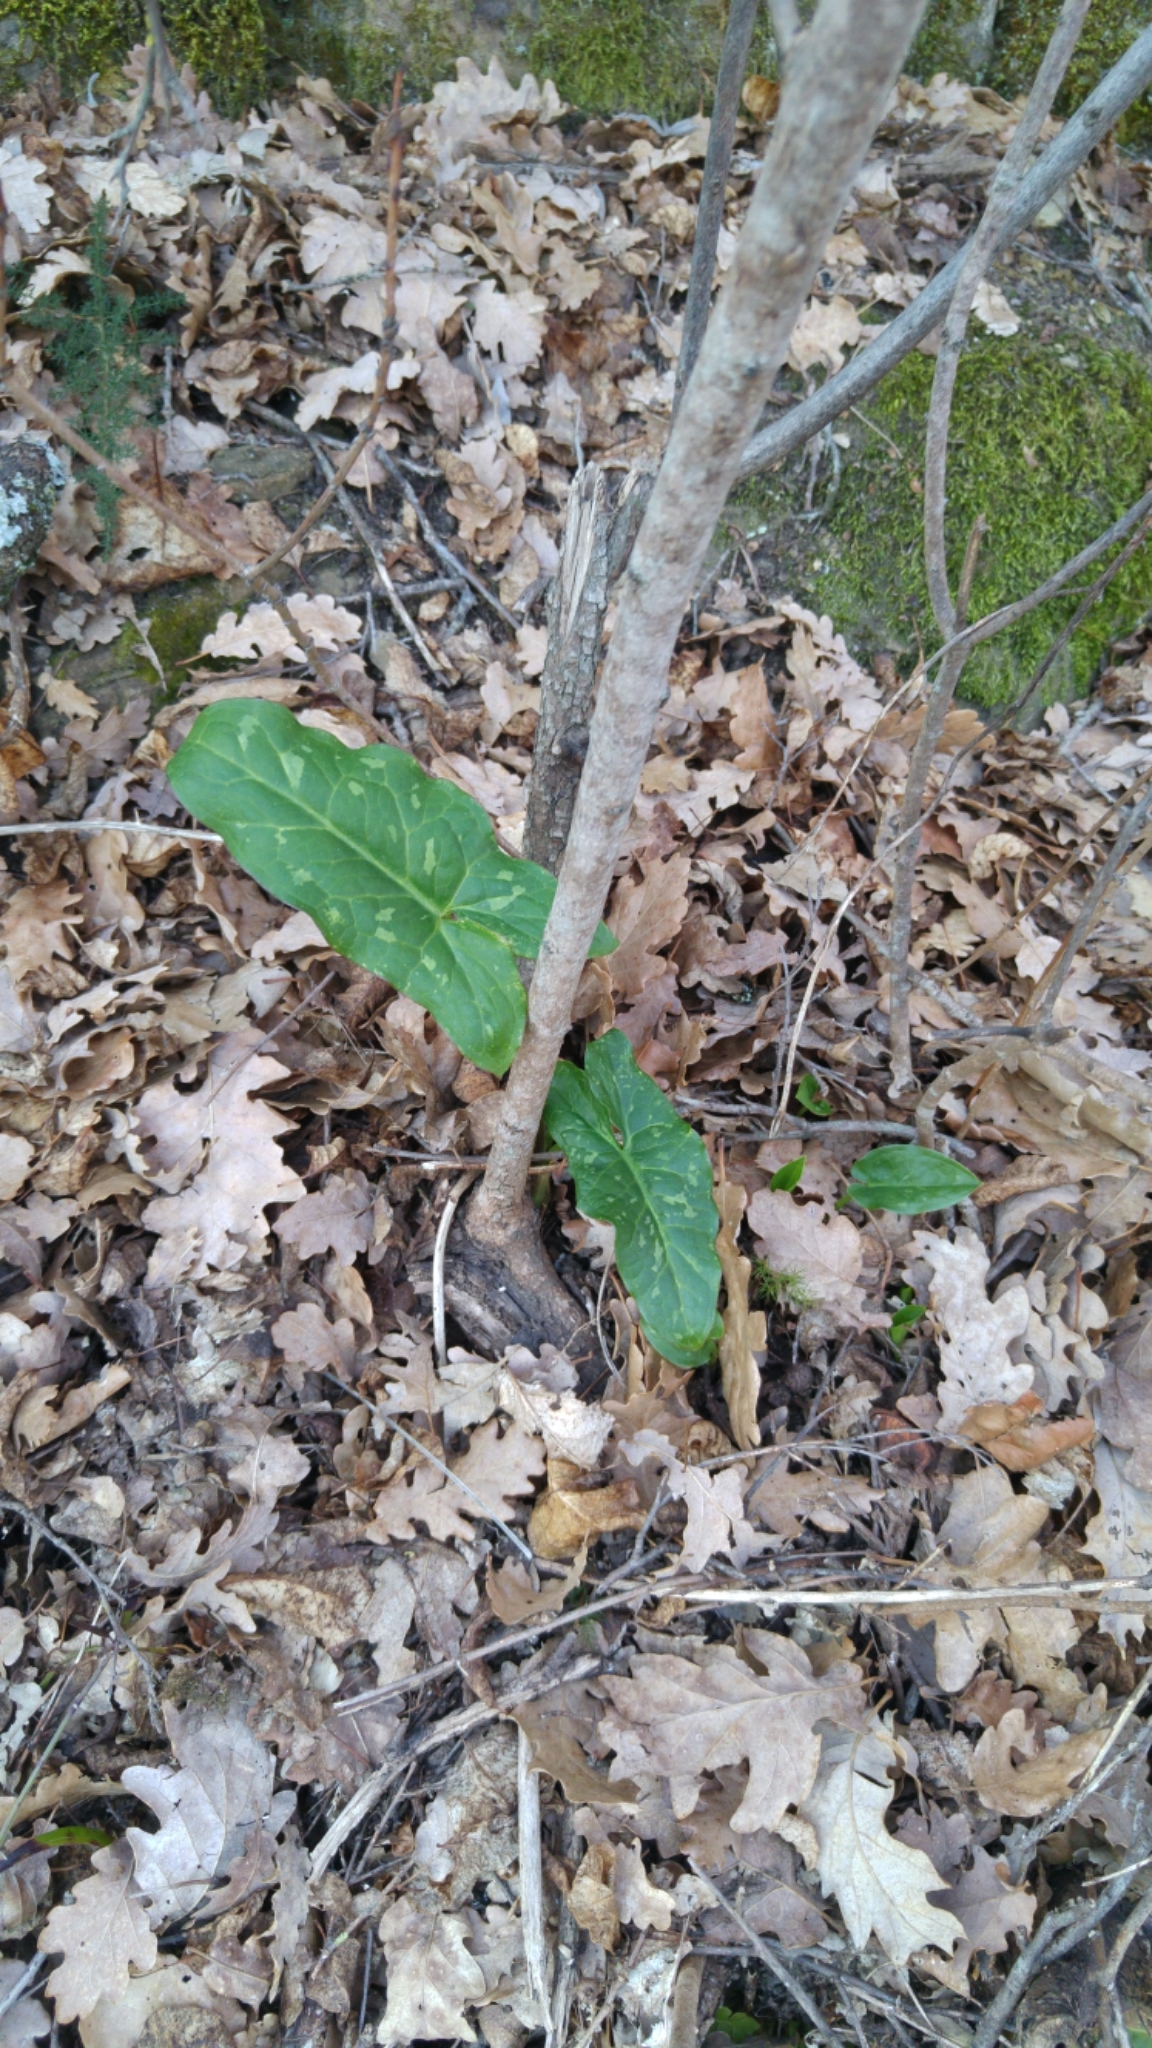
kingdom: Plantae
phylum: Tracheophyta
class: Liliopsida
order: Alismatales
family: Araceae
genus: Arum
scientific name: Arum italicum
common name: Italian lords-and-ladies
